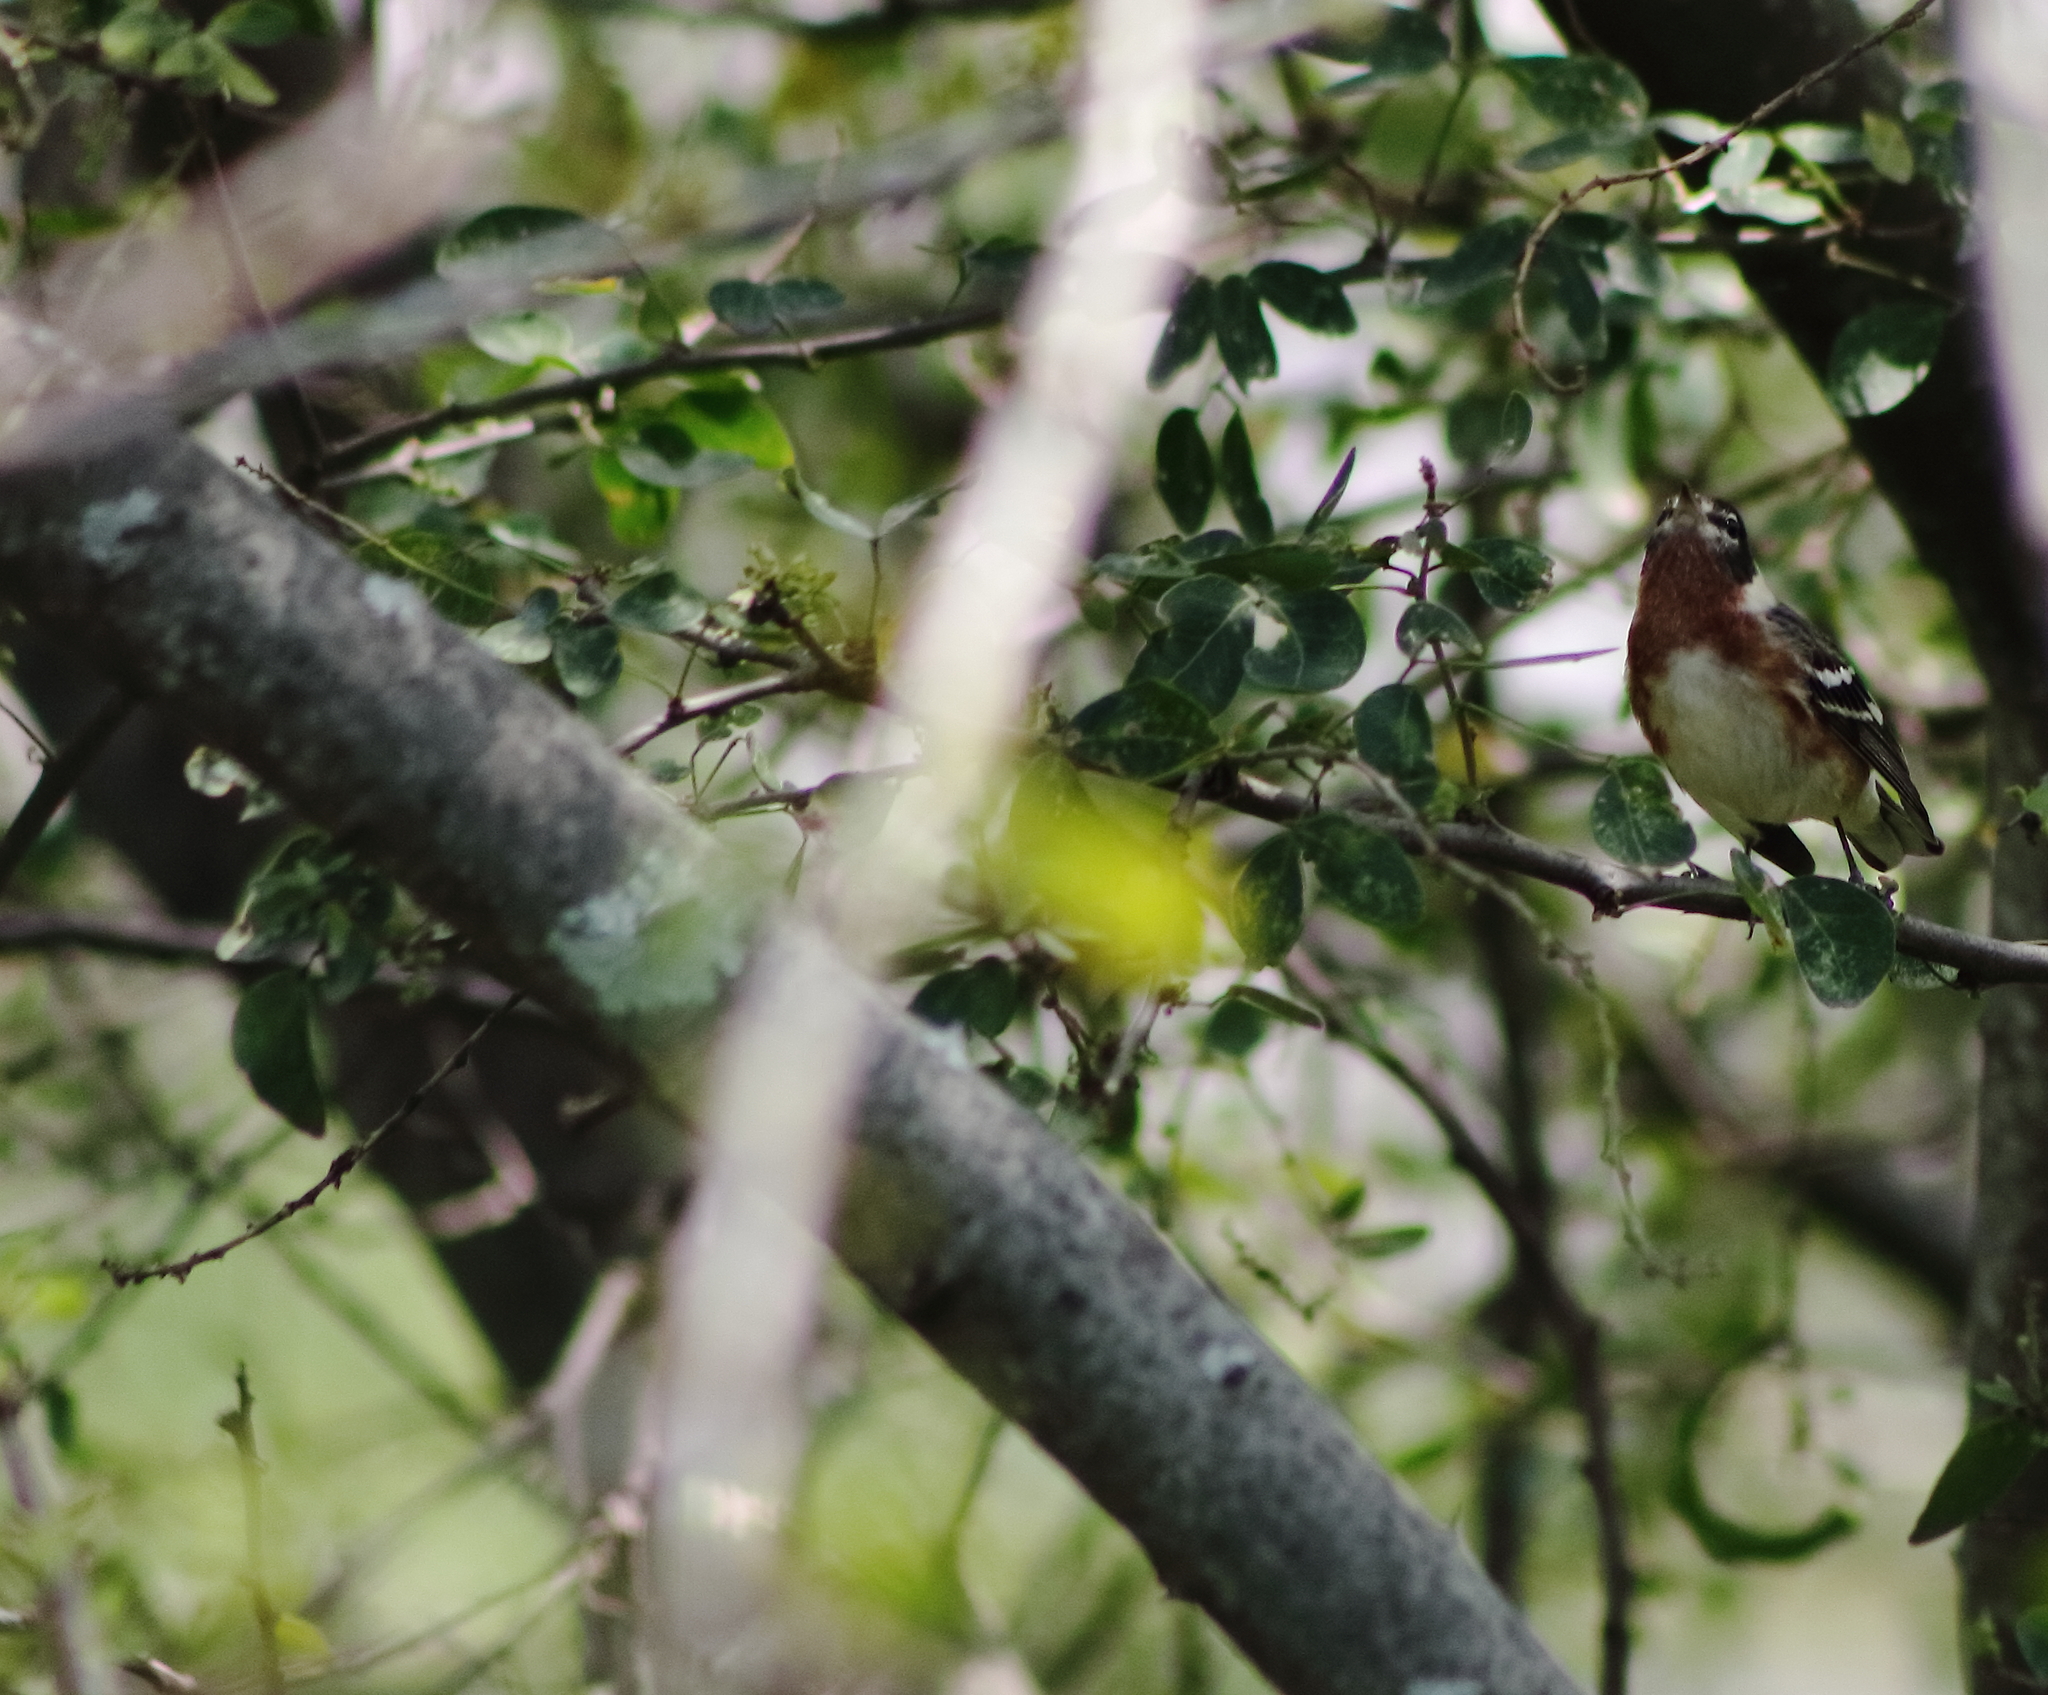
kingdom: Animalia
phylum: Chordata
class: Aves
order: Passeriformes
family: Parulidae
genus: Setophaga
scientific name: Setophaga castanea
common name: Bay-breasted warbler
